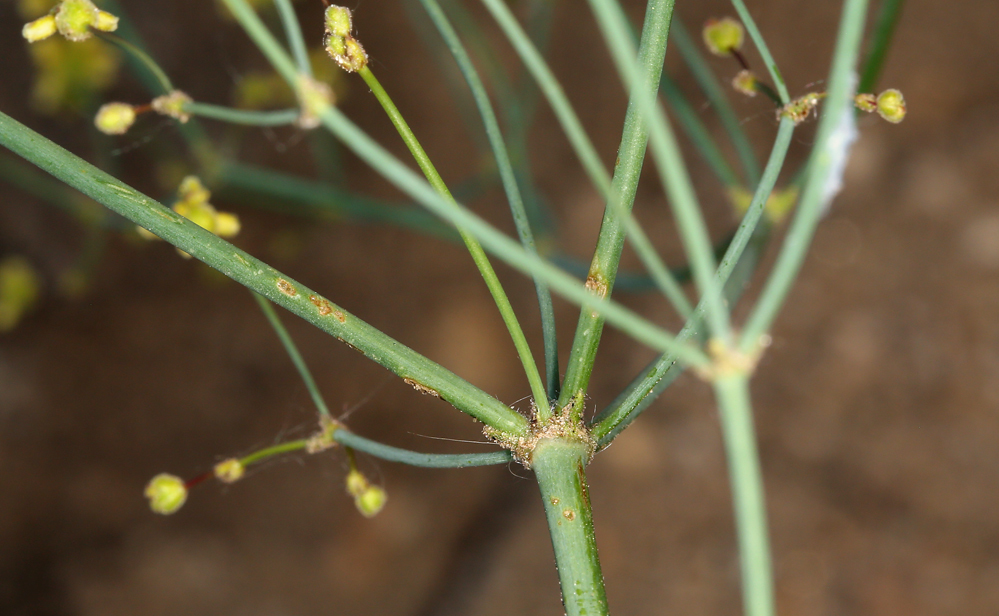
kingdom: Plantae
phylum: Tracheophyta
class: Magnoliopsida
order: Caryophyllales
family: Polygonaceae
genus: Eriogonum
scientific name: Eriogonum pusillum
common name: Yellow turbans
